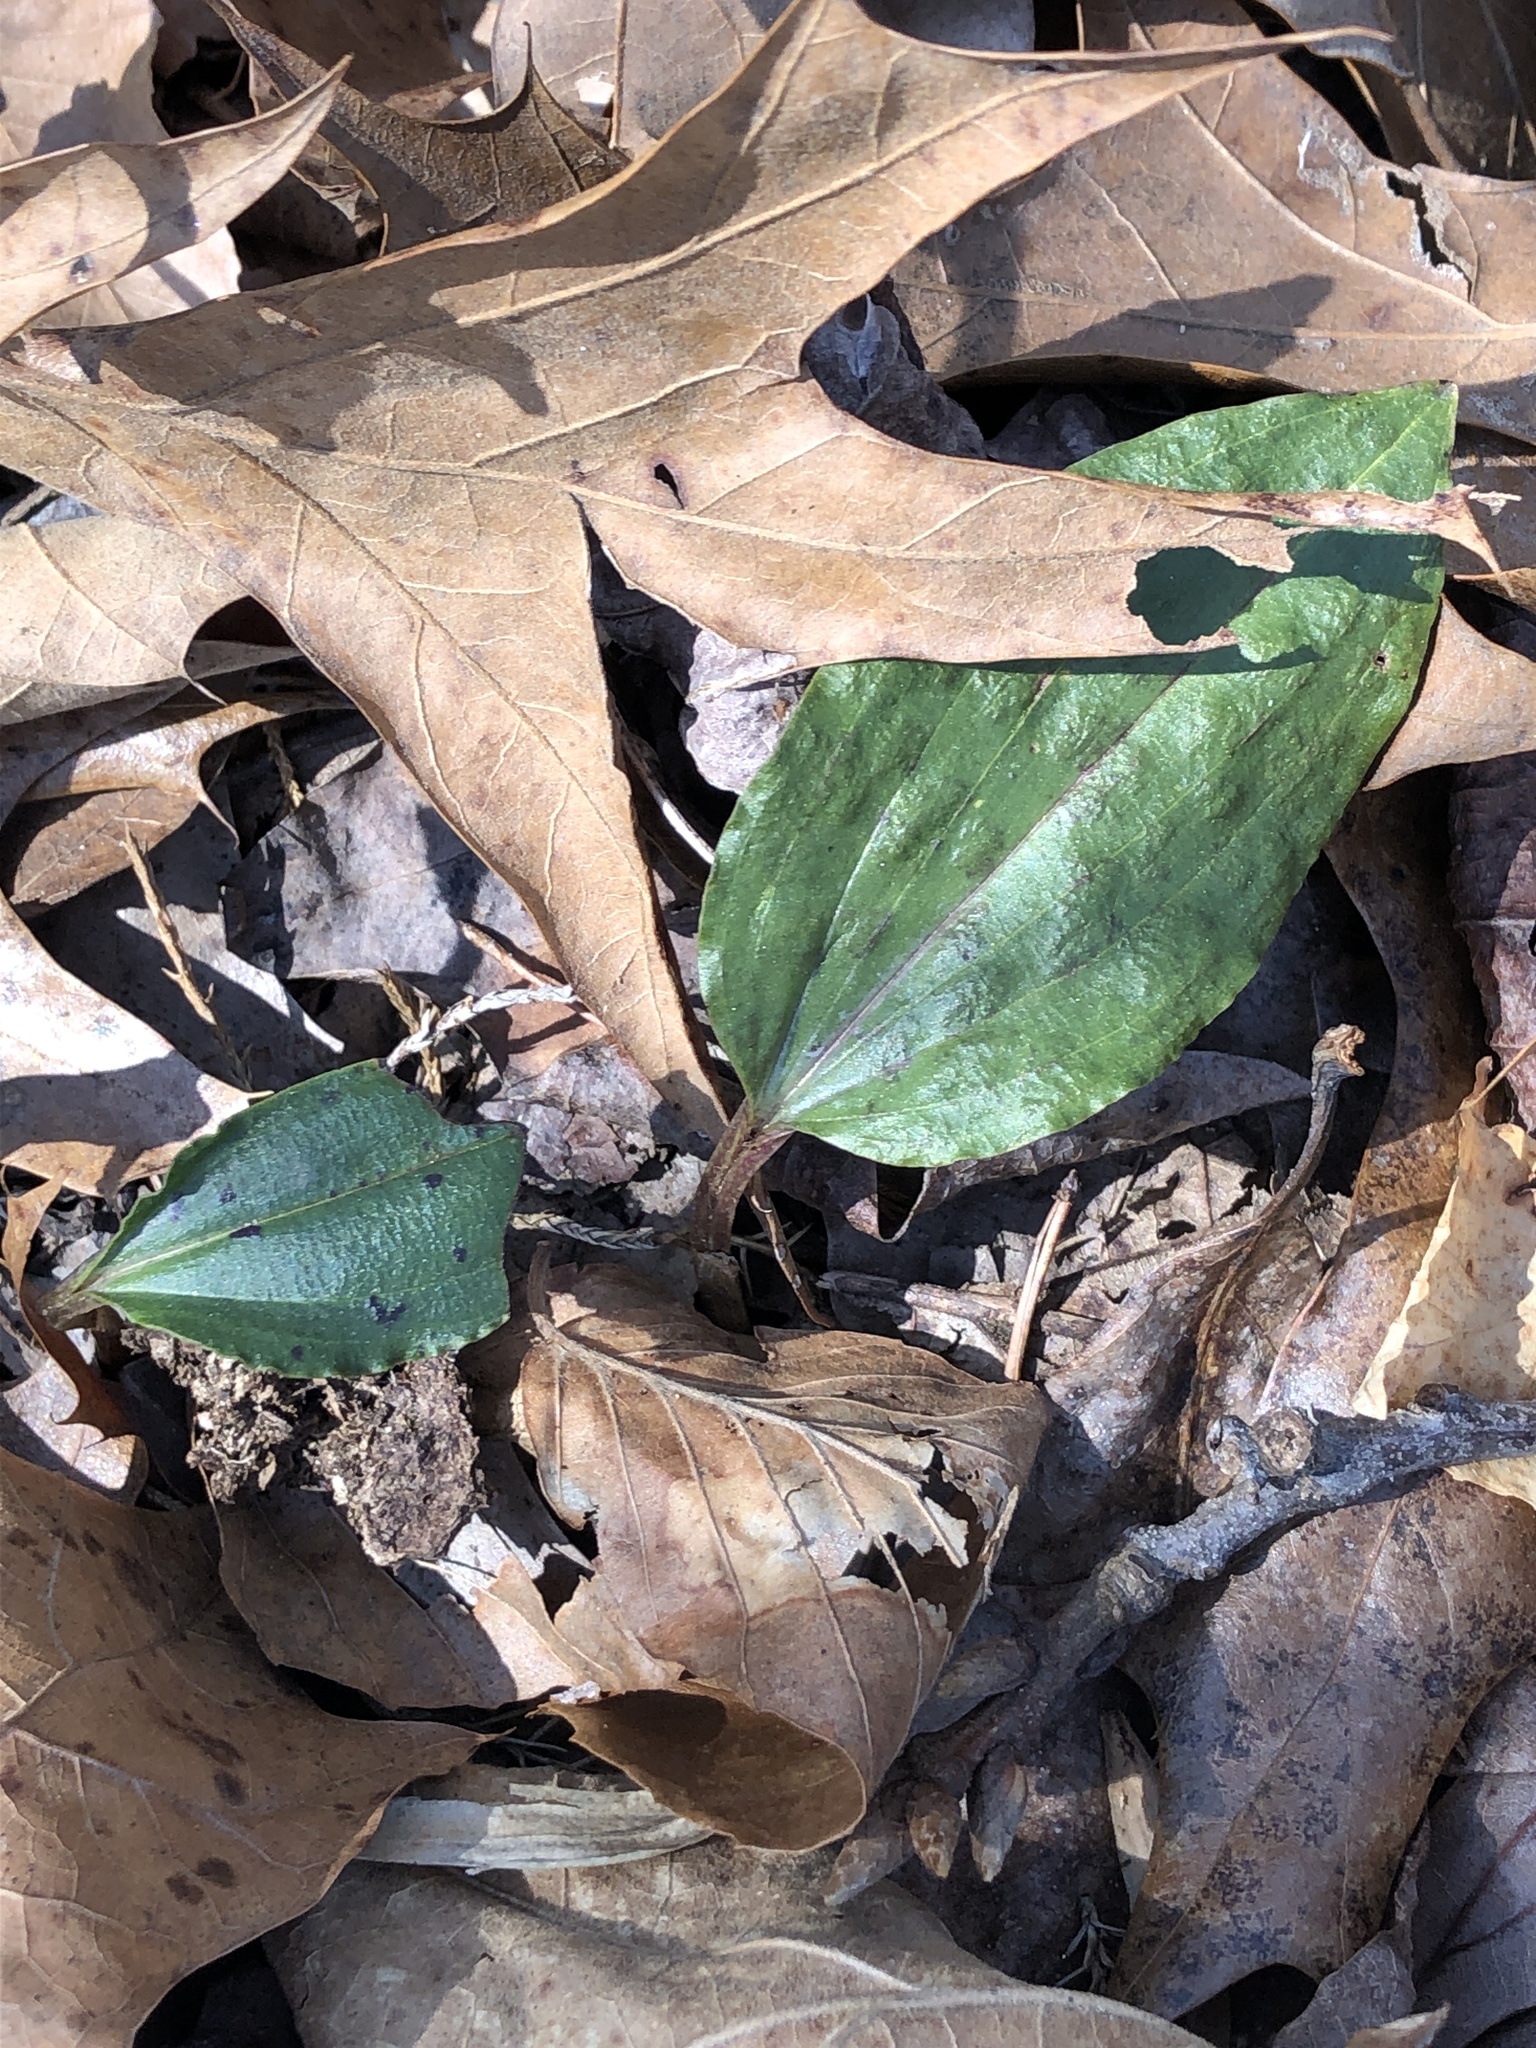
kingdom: Plantae
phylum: Tracheophyta
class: Liliopsida
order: Asparagales
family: Orchidaceae
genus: Tipularia
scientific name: Tipularia discolor
